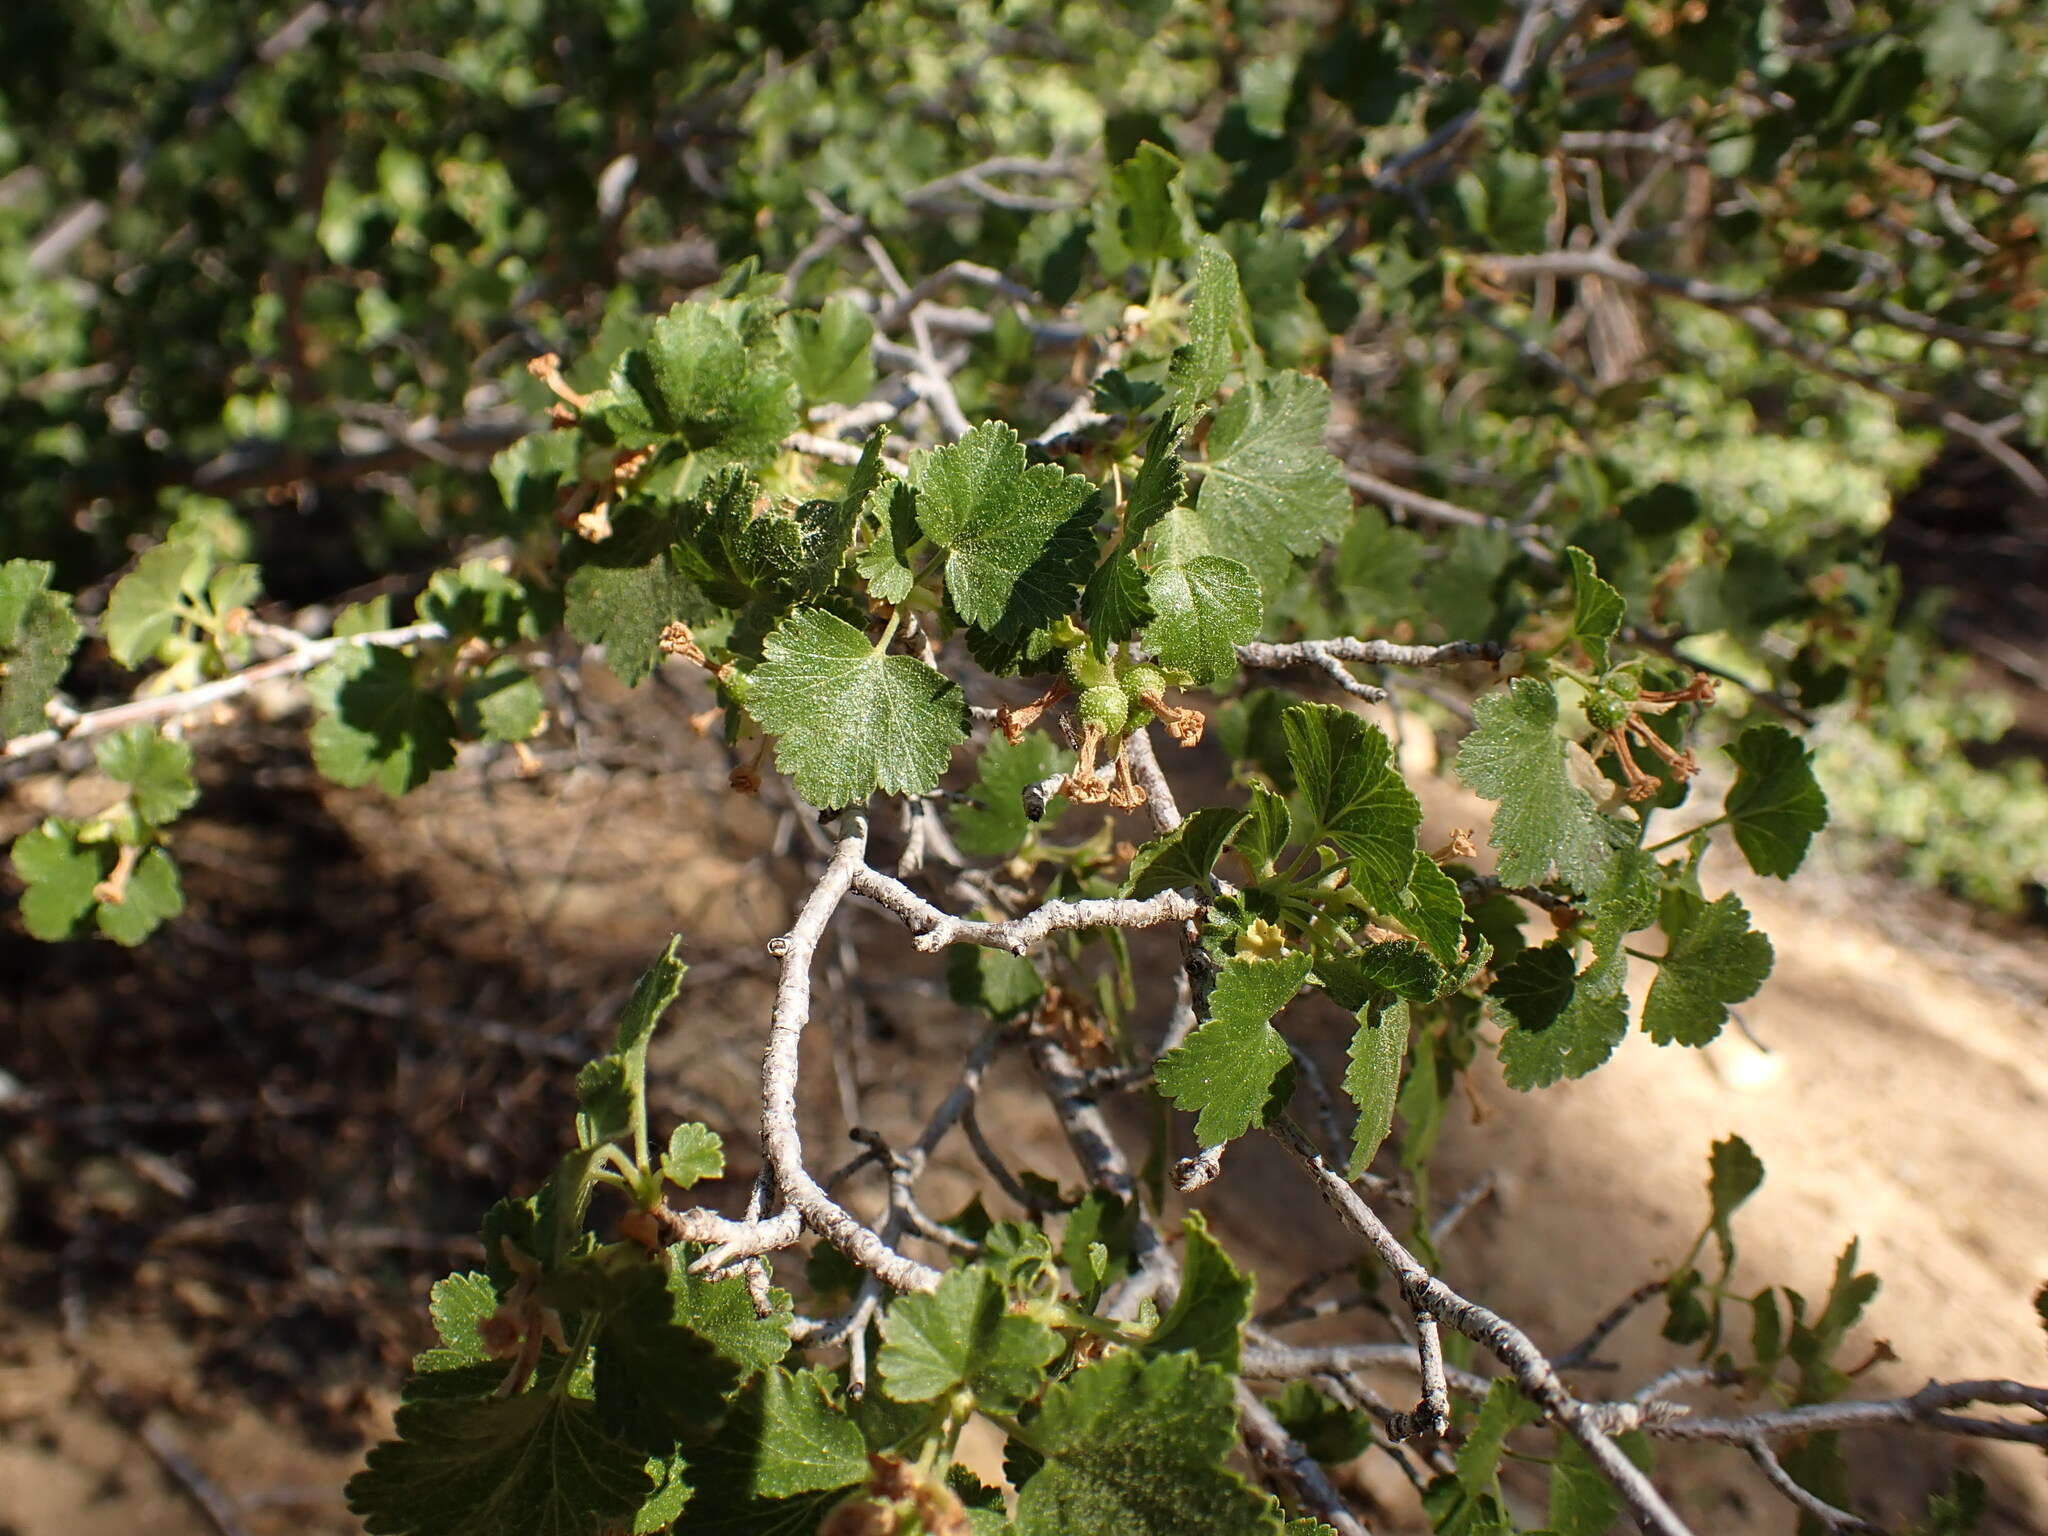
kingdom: Plantae
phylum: Tracheophyta
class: Magnoliopsida
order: Saxifragales
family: Grossulariaceae
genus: Ribes
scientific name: Ribes cereum
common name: Wax currant
